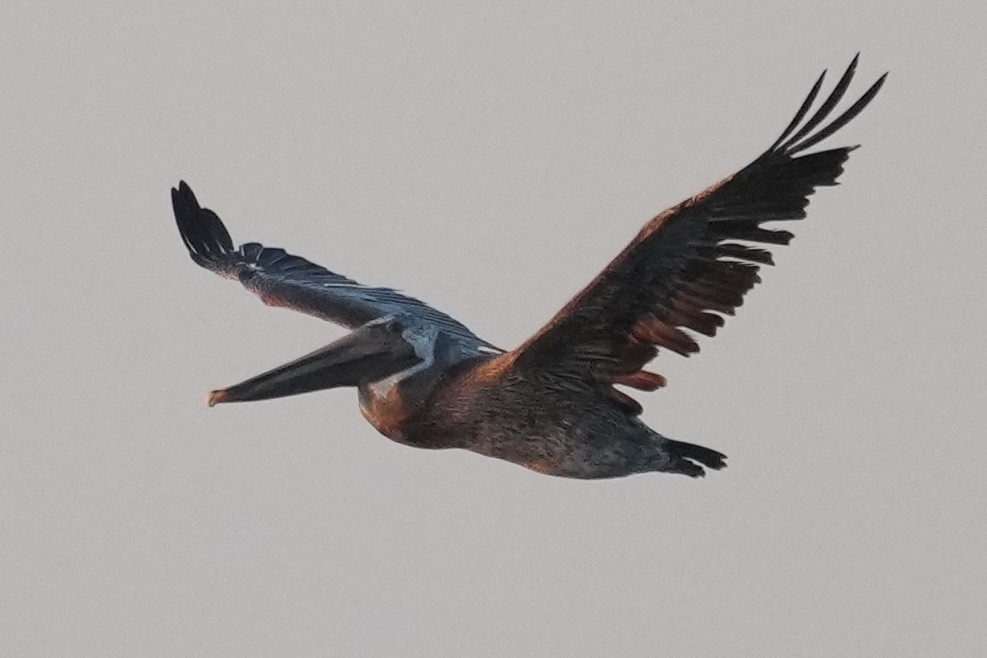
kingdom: Animalia
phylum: Chordata
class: Aves
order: Pelecaniformes
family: Pelecanidae
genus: Pelecanus
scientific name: Pelecanus occidentalis
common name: Brown pelican
